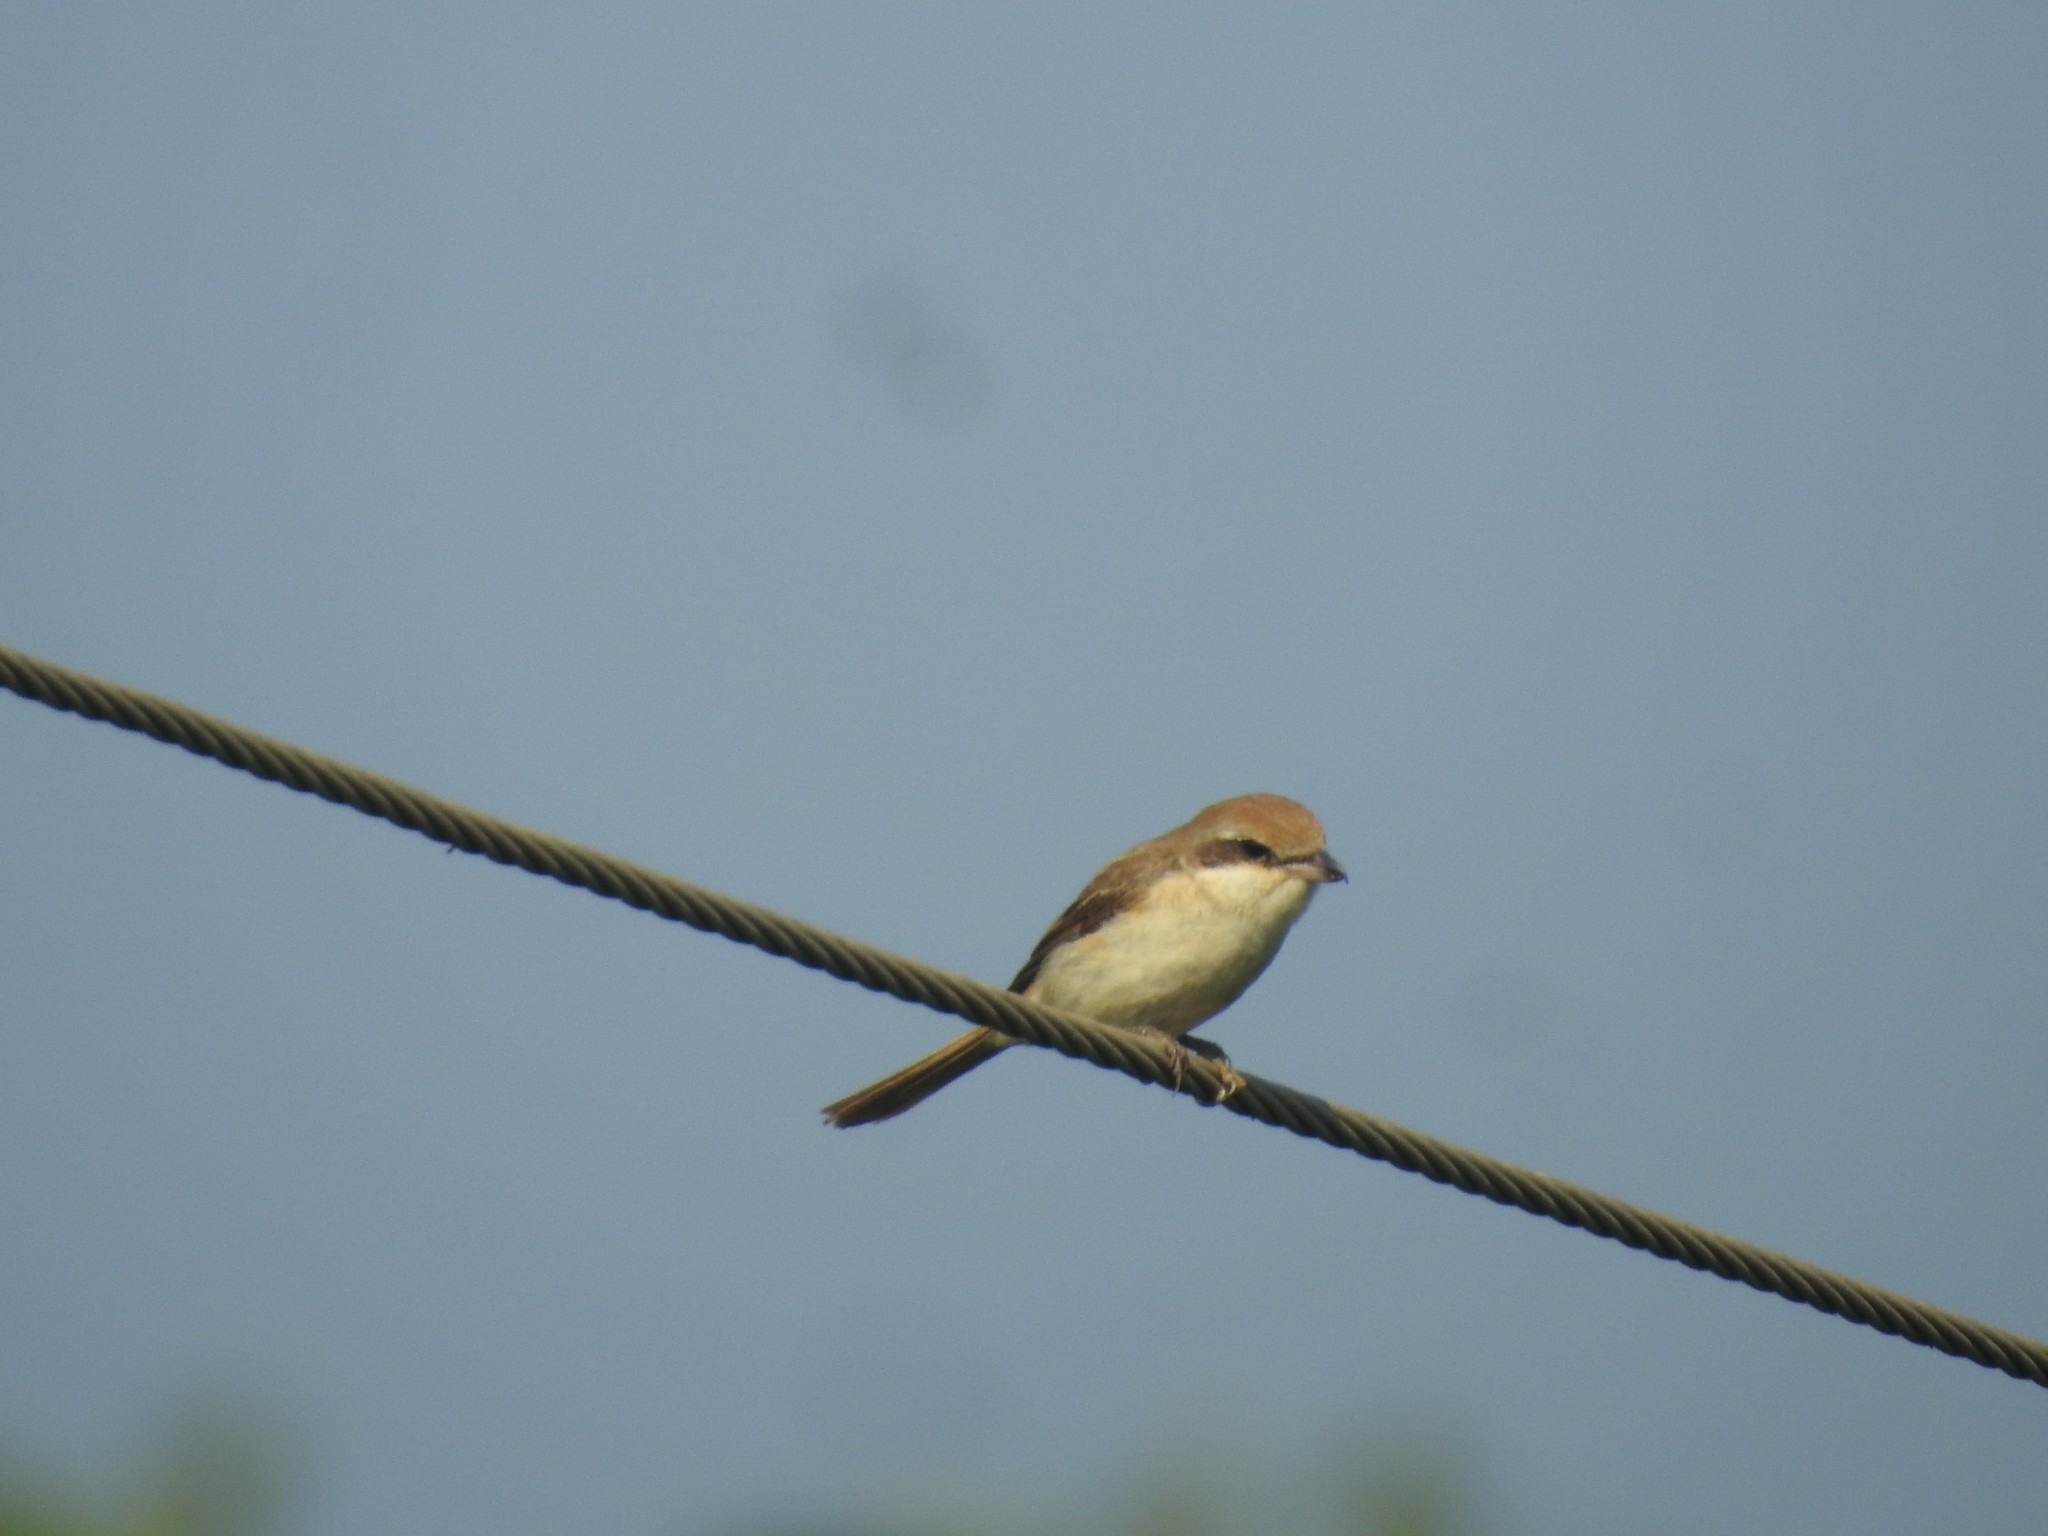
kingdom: Animalia
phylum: Chordata
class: Aves
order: Passeriformes
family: Laniidae
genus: Lanius
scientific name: Lanius cristatus
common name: Brown shrike
